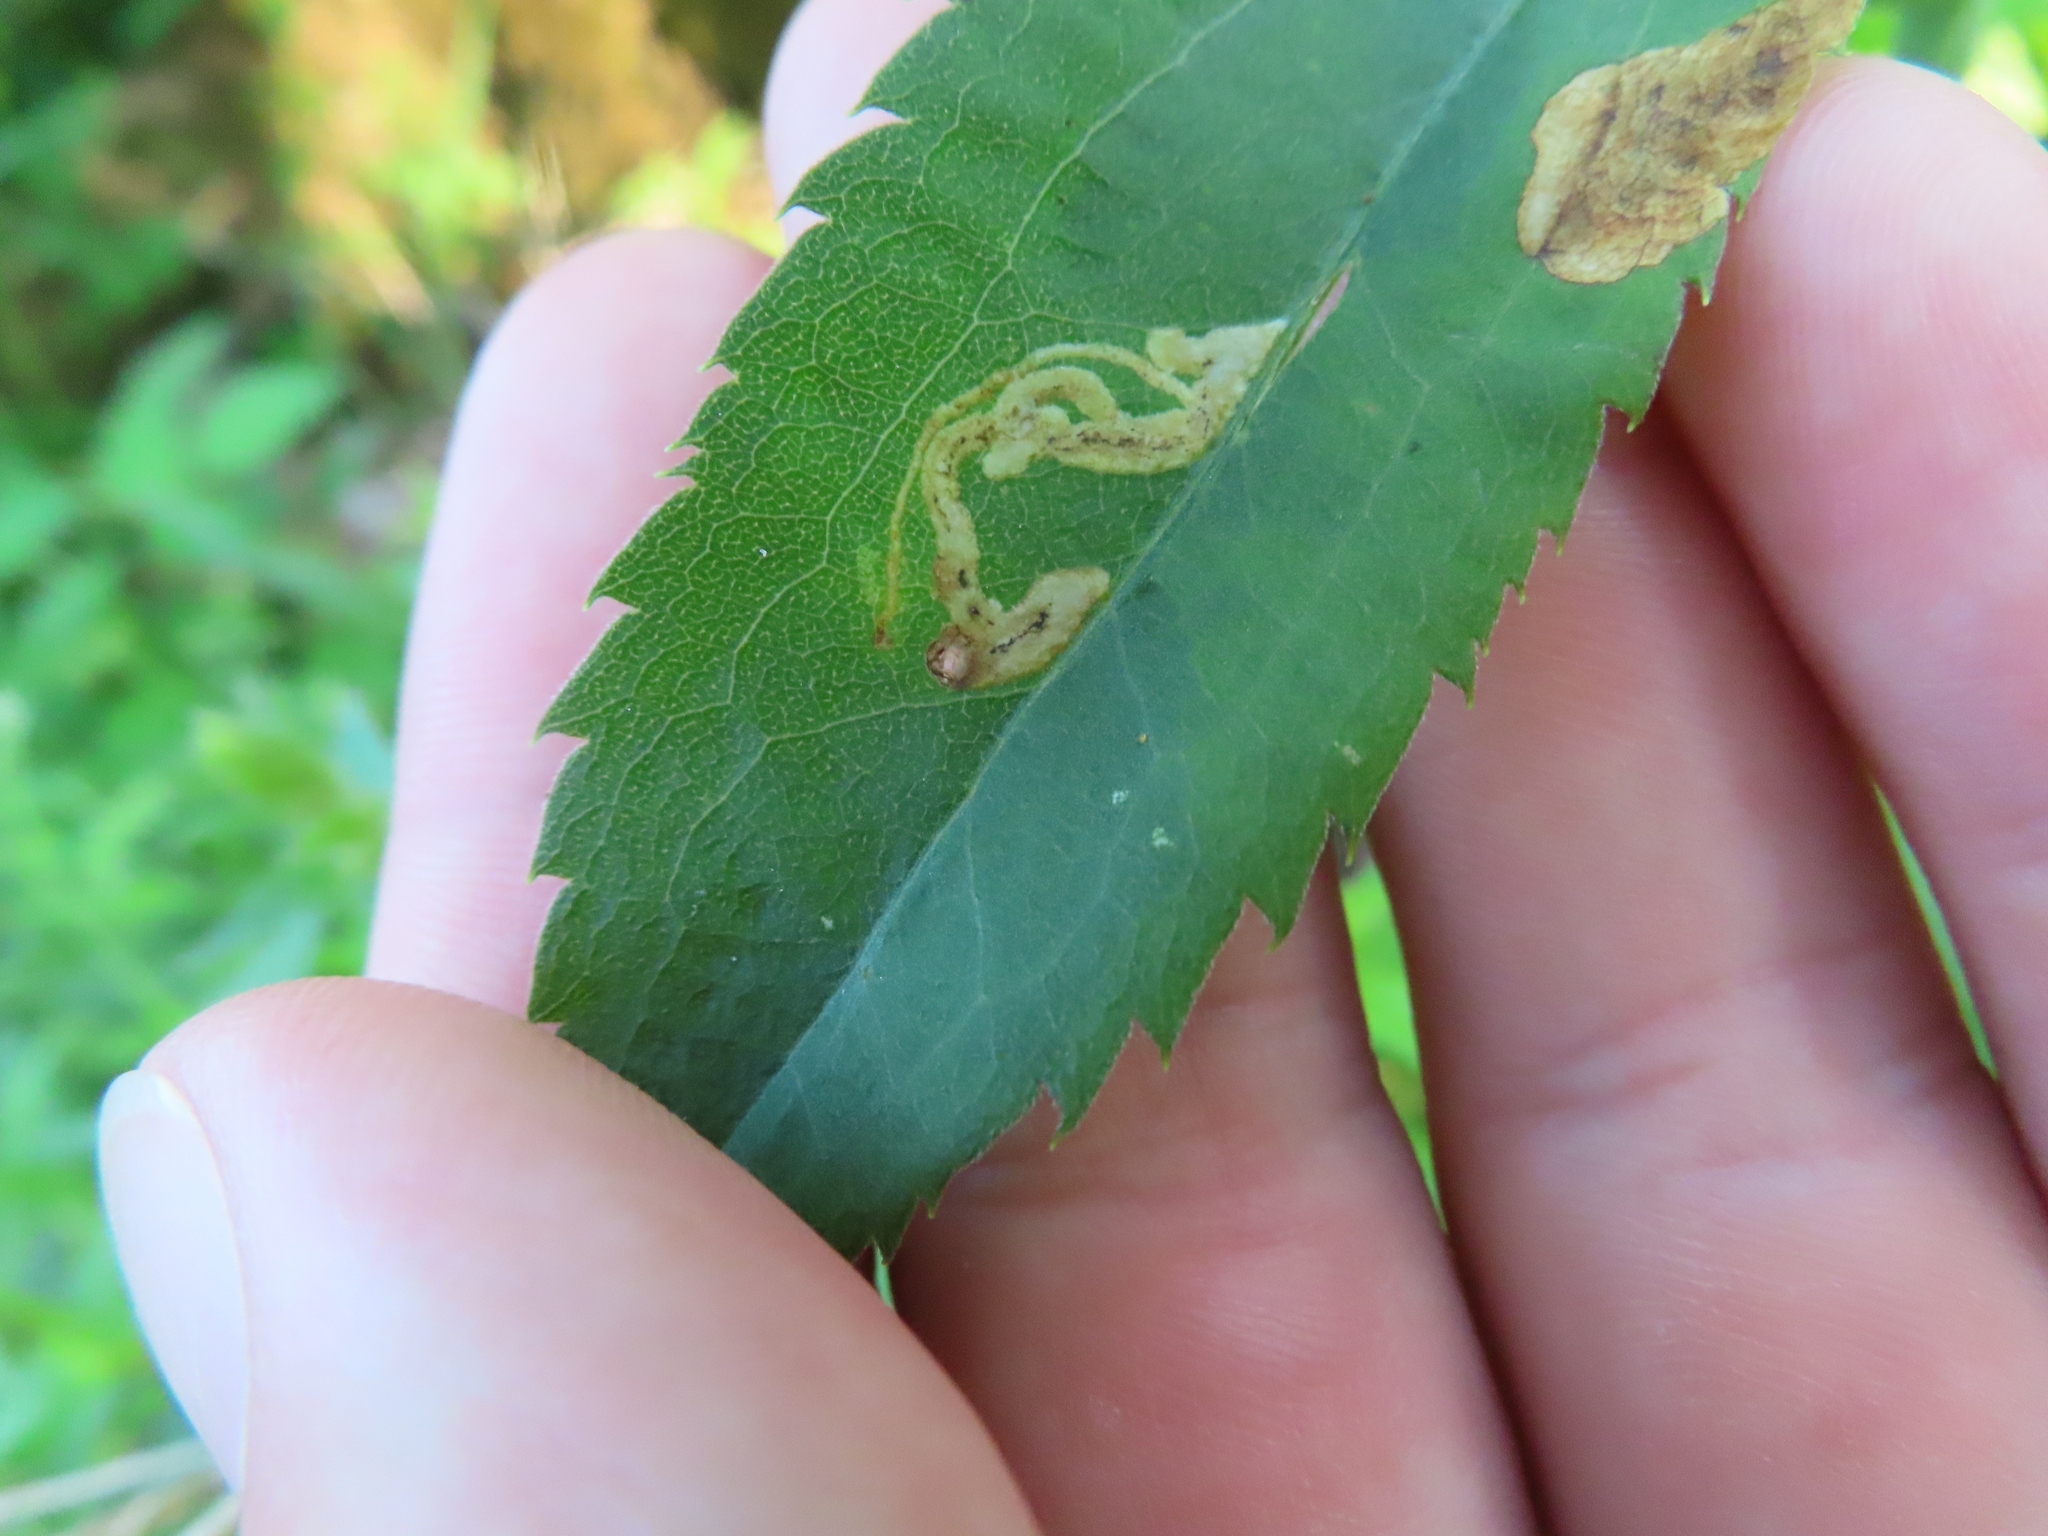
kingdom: Animalia
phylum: Arthropoda
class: Insecta
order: Diptera
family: Agromyzidae
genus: Nemorimyza
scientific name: Nemorimyza posticata
